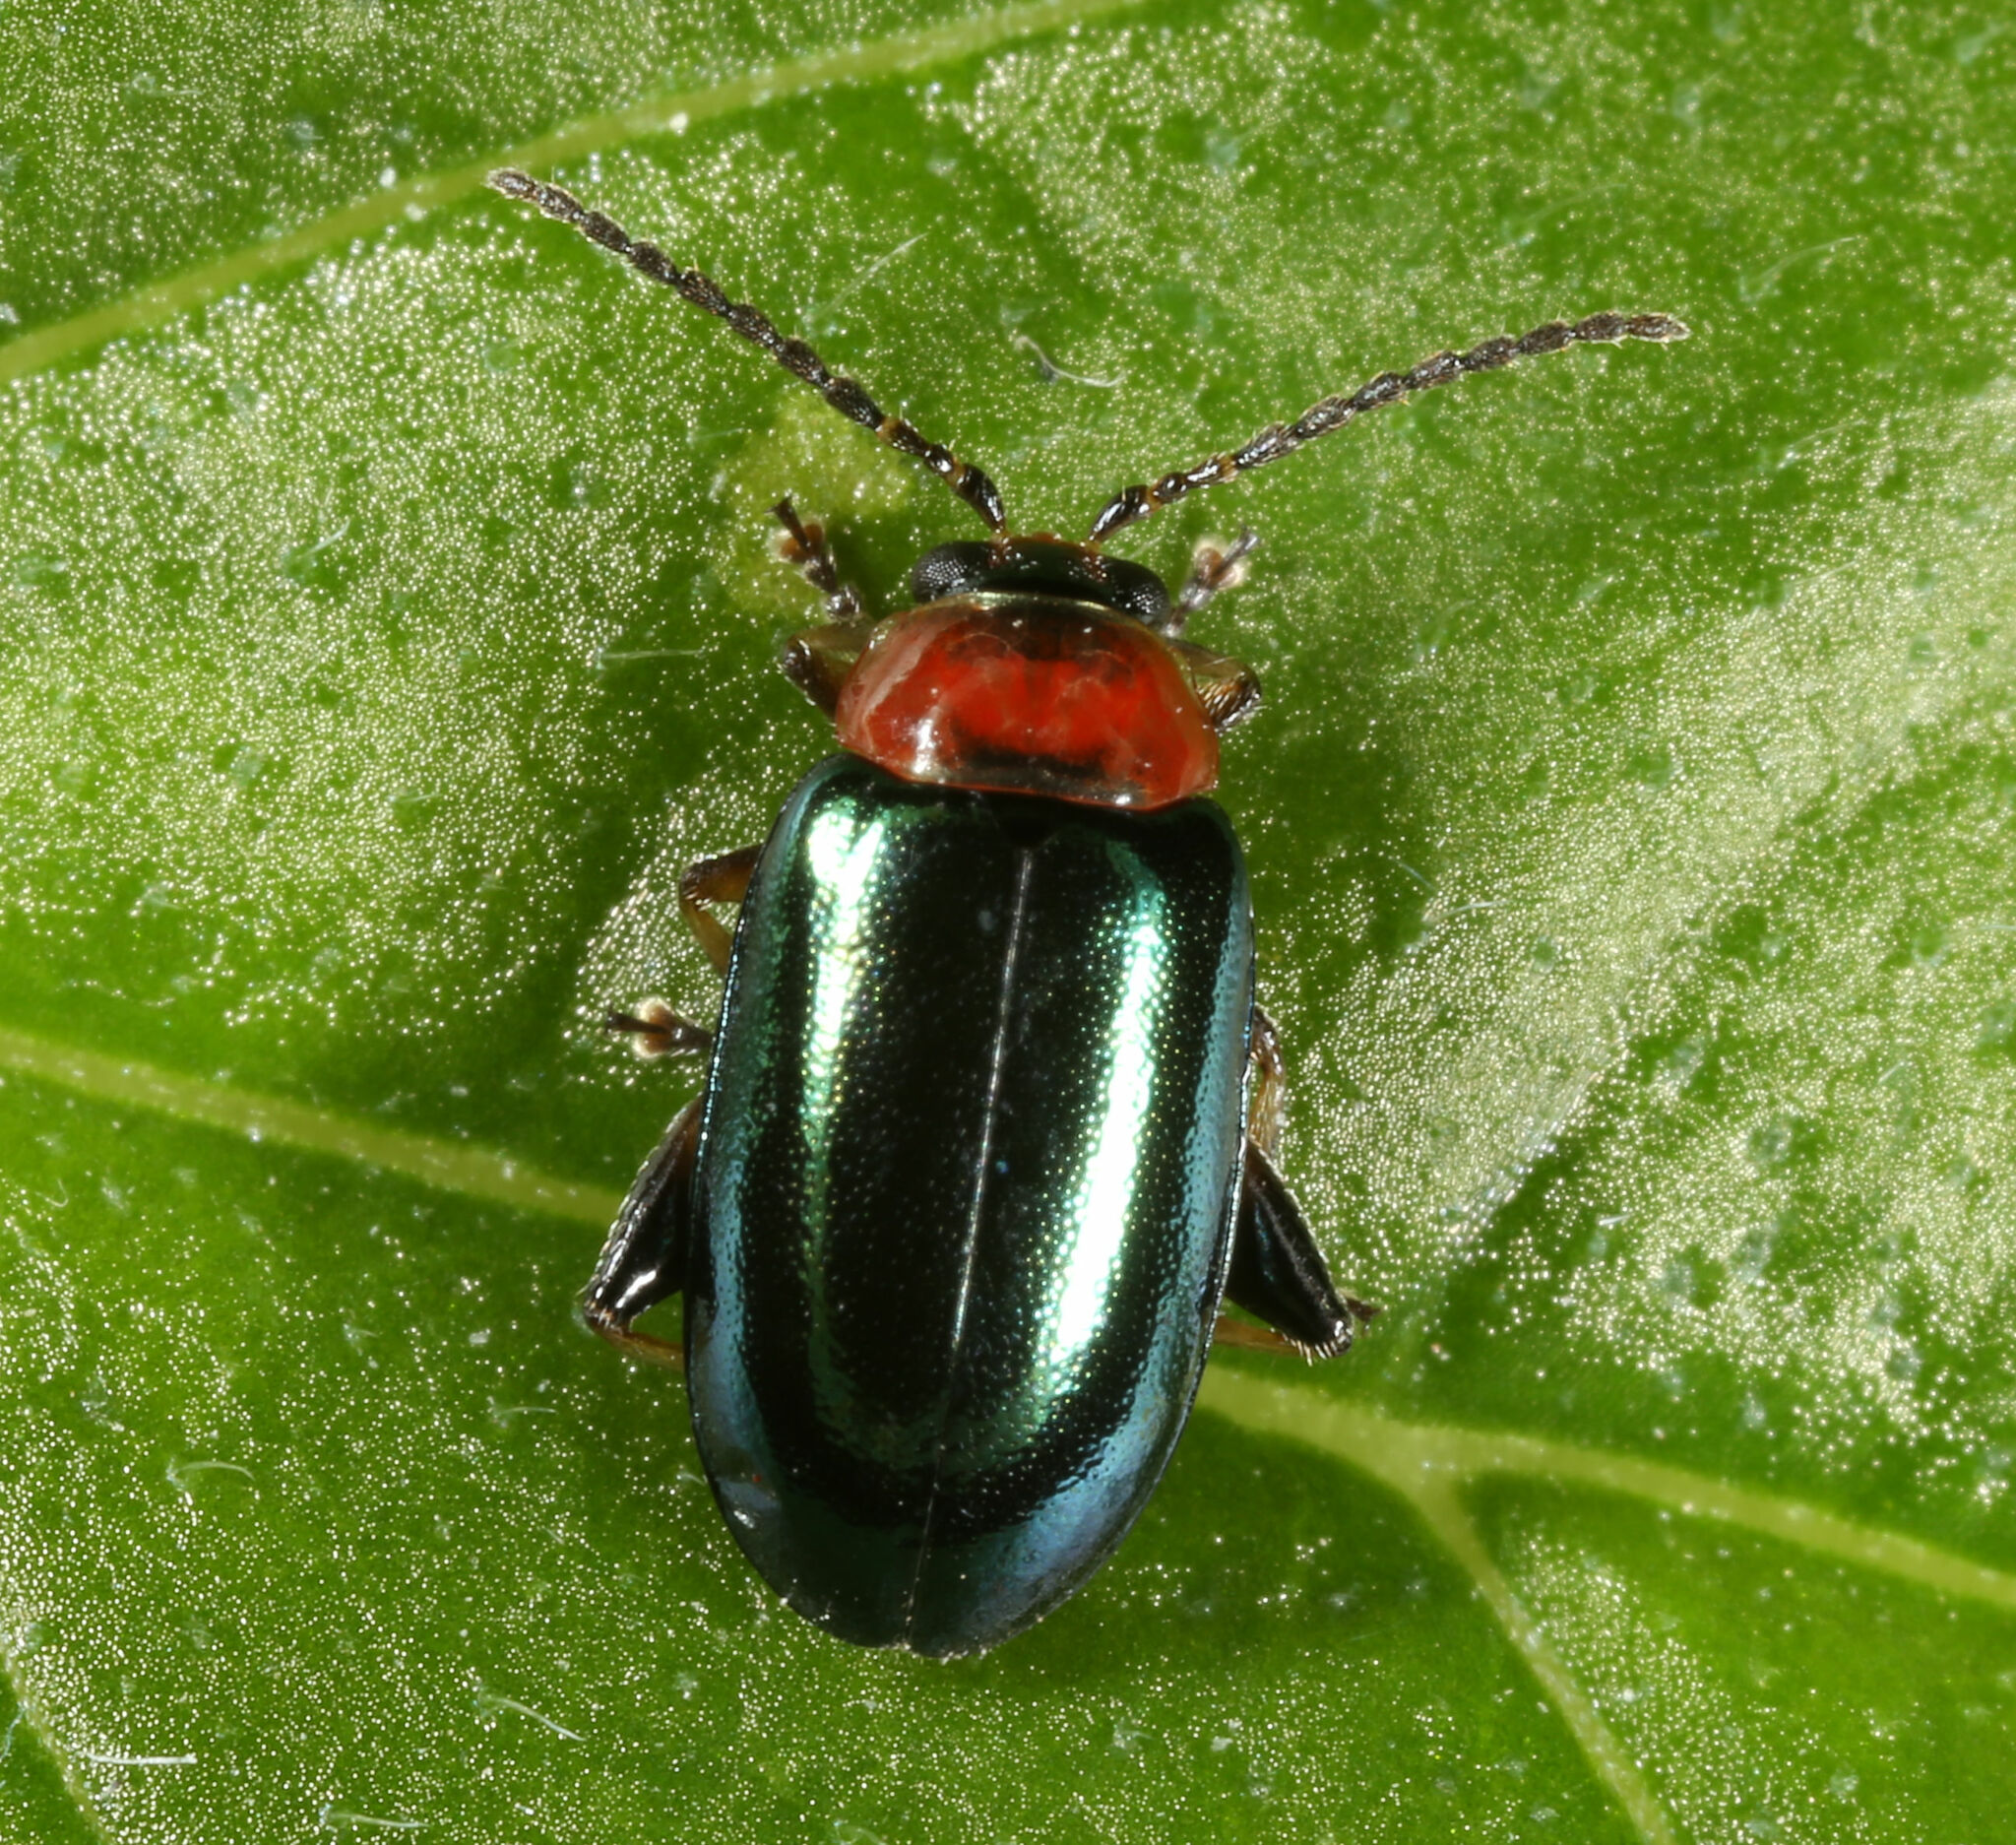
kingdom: Animalia
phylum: Arthropoda
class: Insecta
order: Coleoptera
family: Chrysomelidae
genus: Disonycha
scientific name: Disonycha politula
